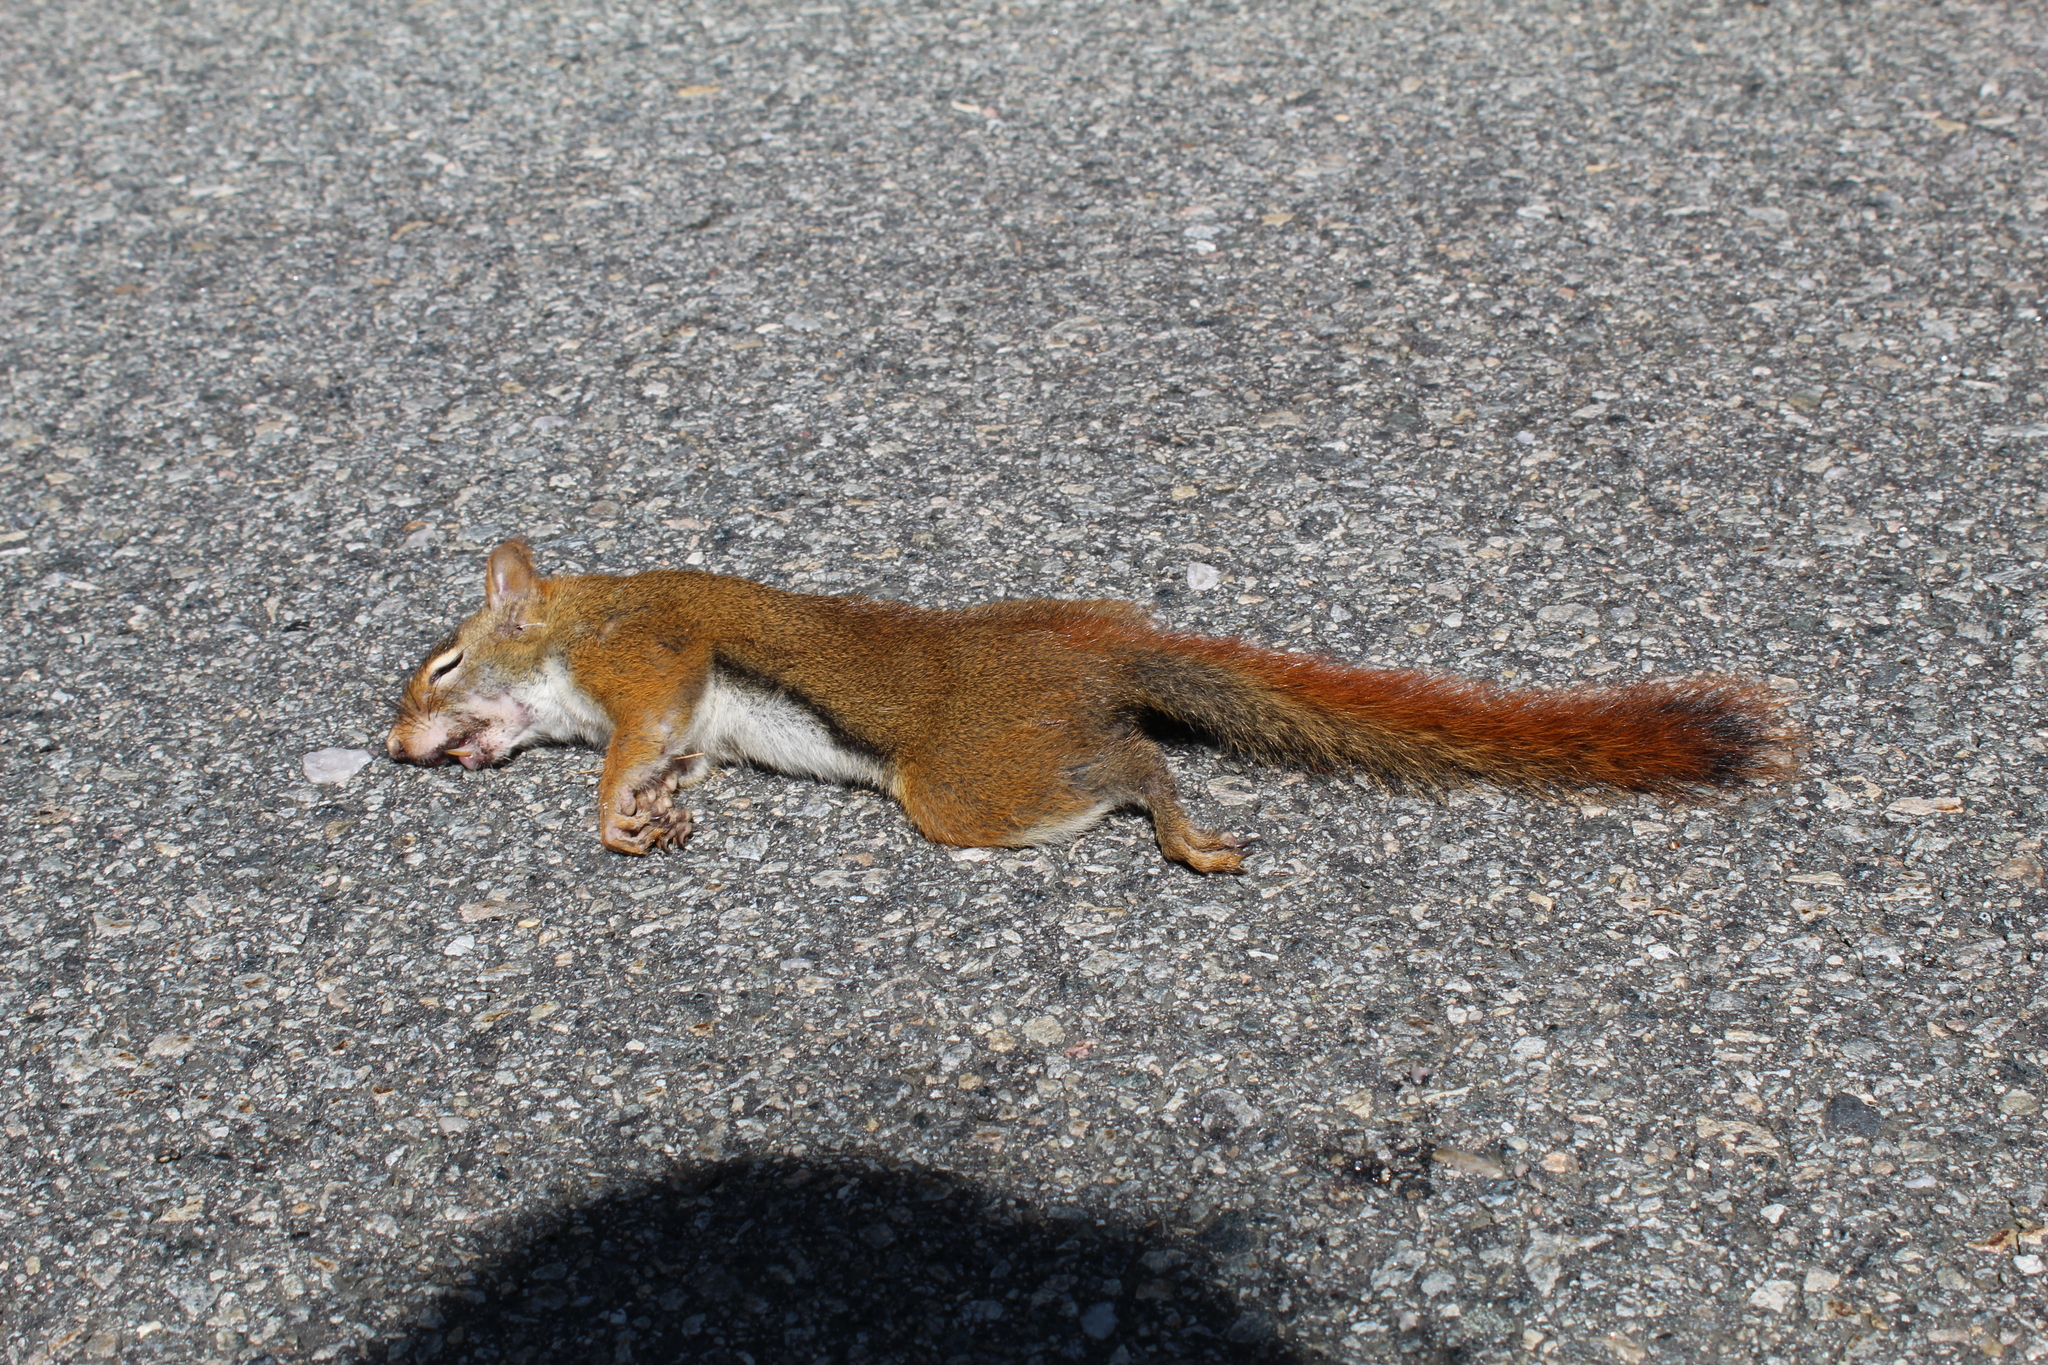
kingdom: Animalia
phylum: Chordata
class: Mammalia
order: Rodentia
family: Sciuridae
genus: Tamiasciurus
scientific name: Tamiasciurus hudsonicus
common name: Red squirrel
